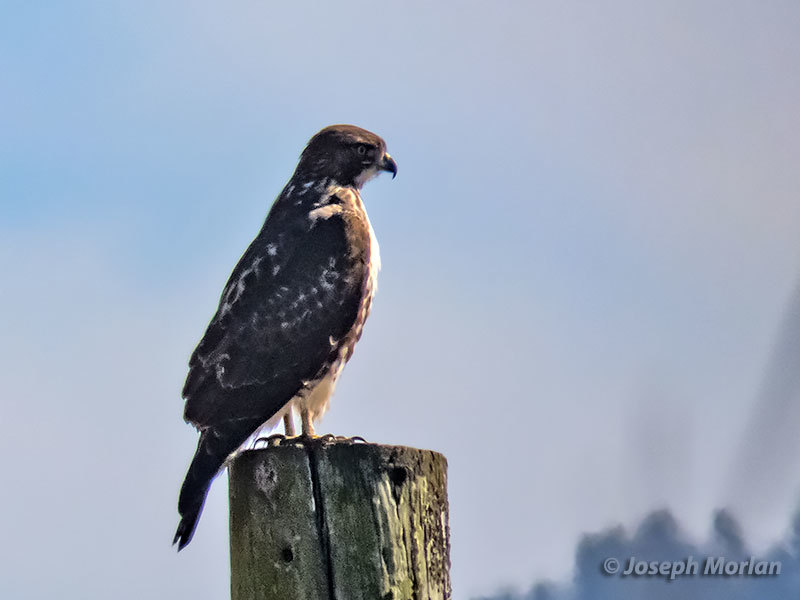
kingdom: Animalia
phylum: Chordata
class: Aves
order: Accipitriformes
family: Accipitridae
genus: Buteo
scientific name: Buteo jamaicensis
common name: Red-tailed hawk
